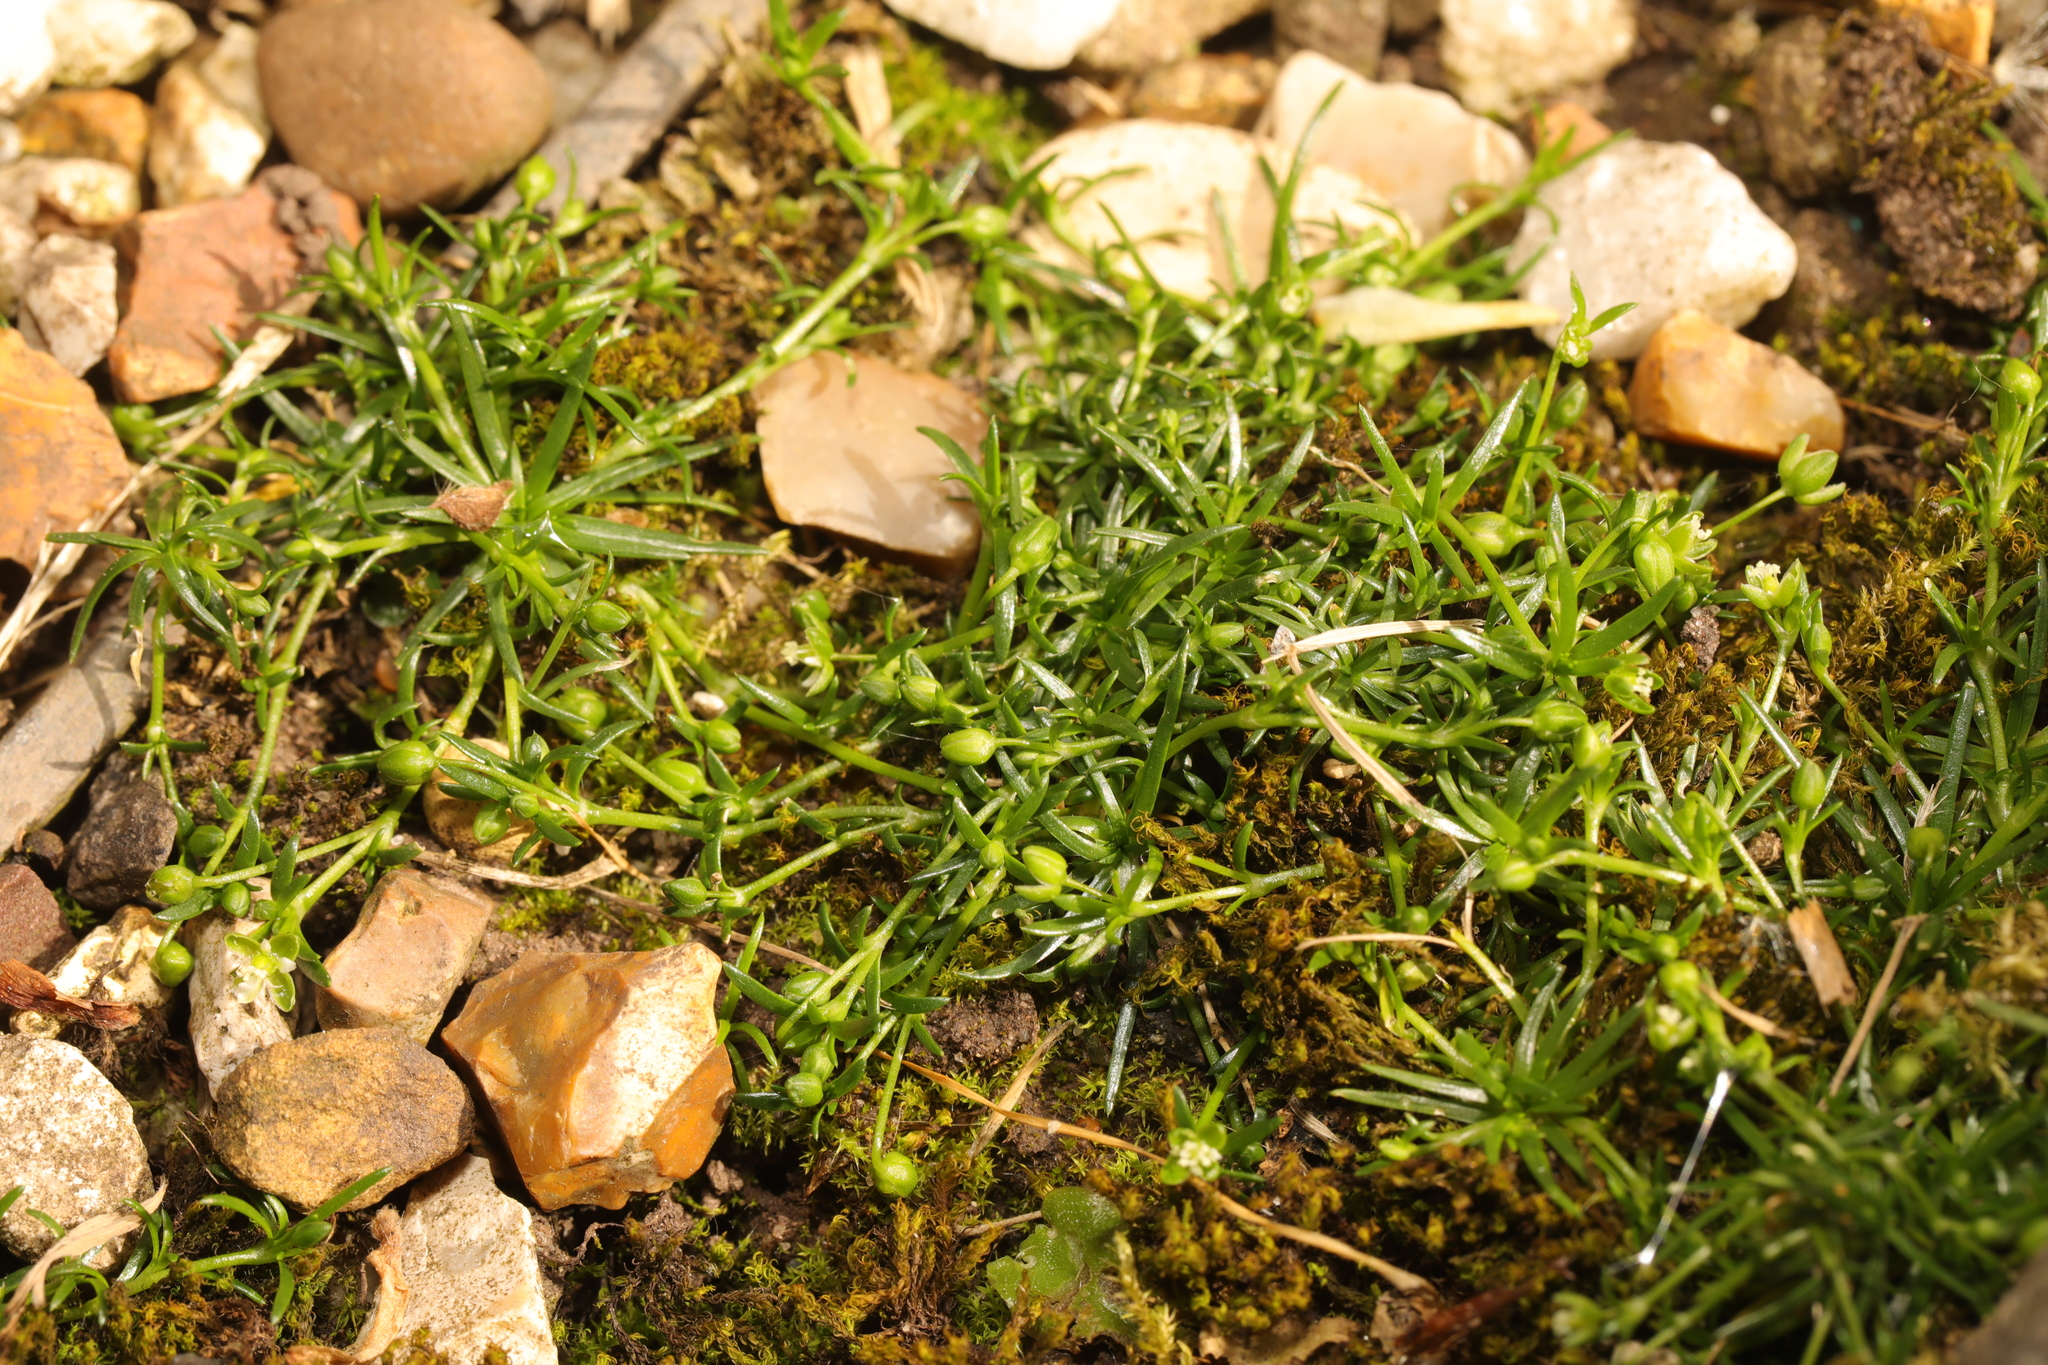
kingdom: Plantae
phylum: Tracheophyta
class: Magnoliopsida
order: Caryophyllales
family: Caryophyllaceae
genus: Sagina
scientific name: Sagina procumbens
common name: Procumbent pearlwort
